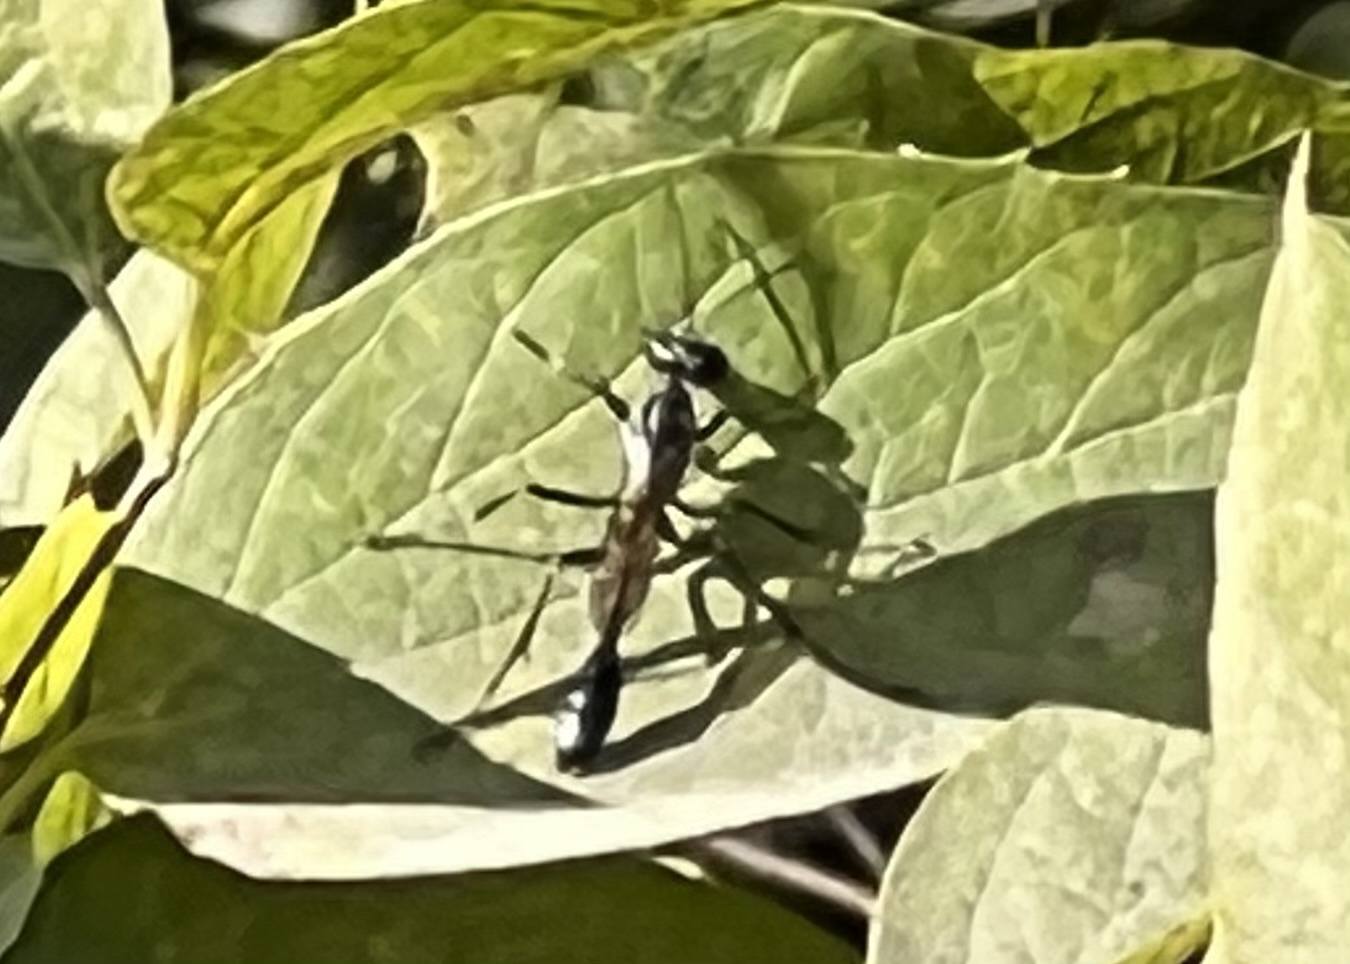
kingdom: Animalia
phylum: Arthropoda
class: Insecta
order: Hymenoptera
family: Sphecidae
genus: Eremnophila
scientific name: Eremnophila aureonotata
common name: Gold-marked thread-waisted wasp
